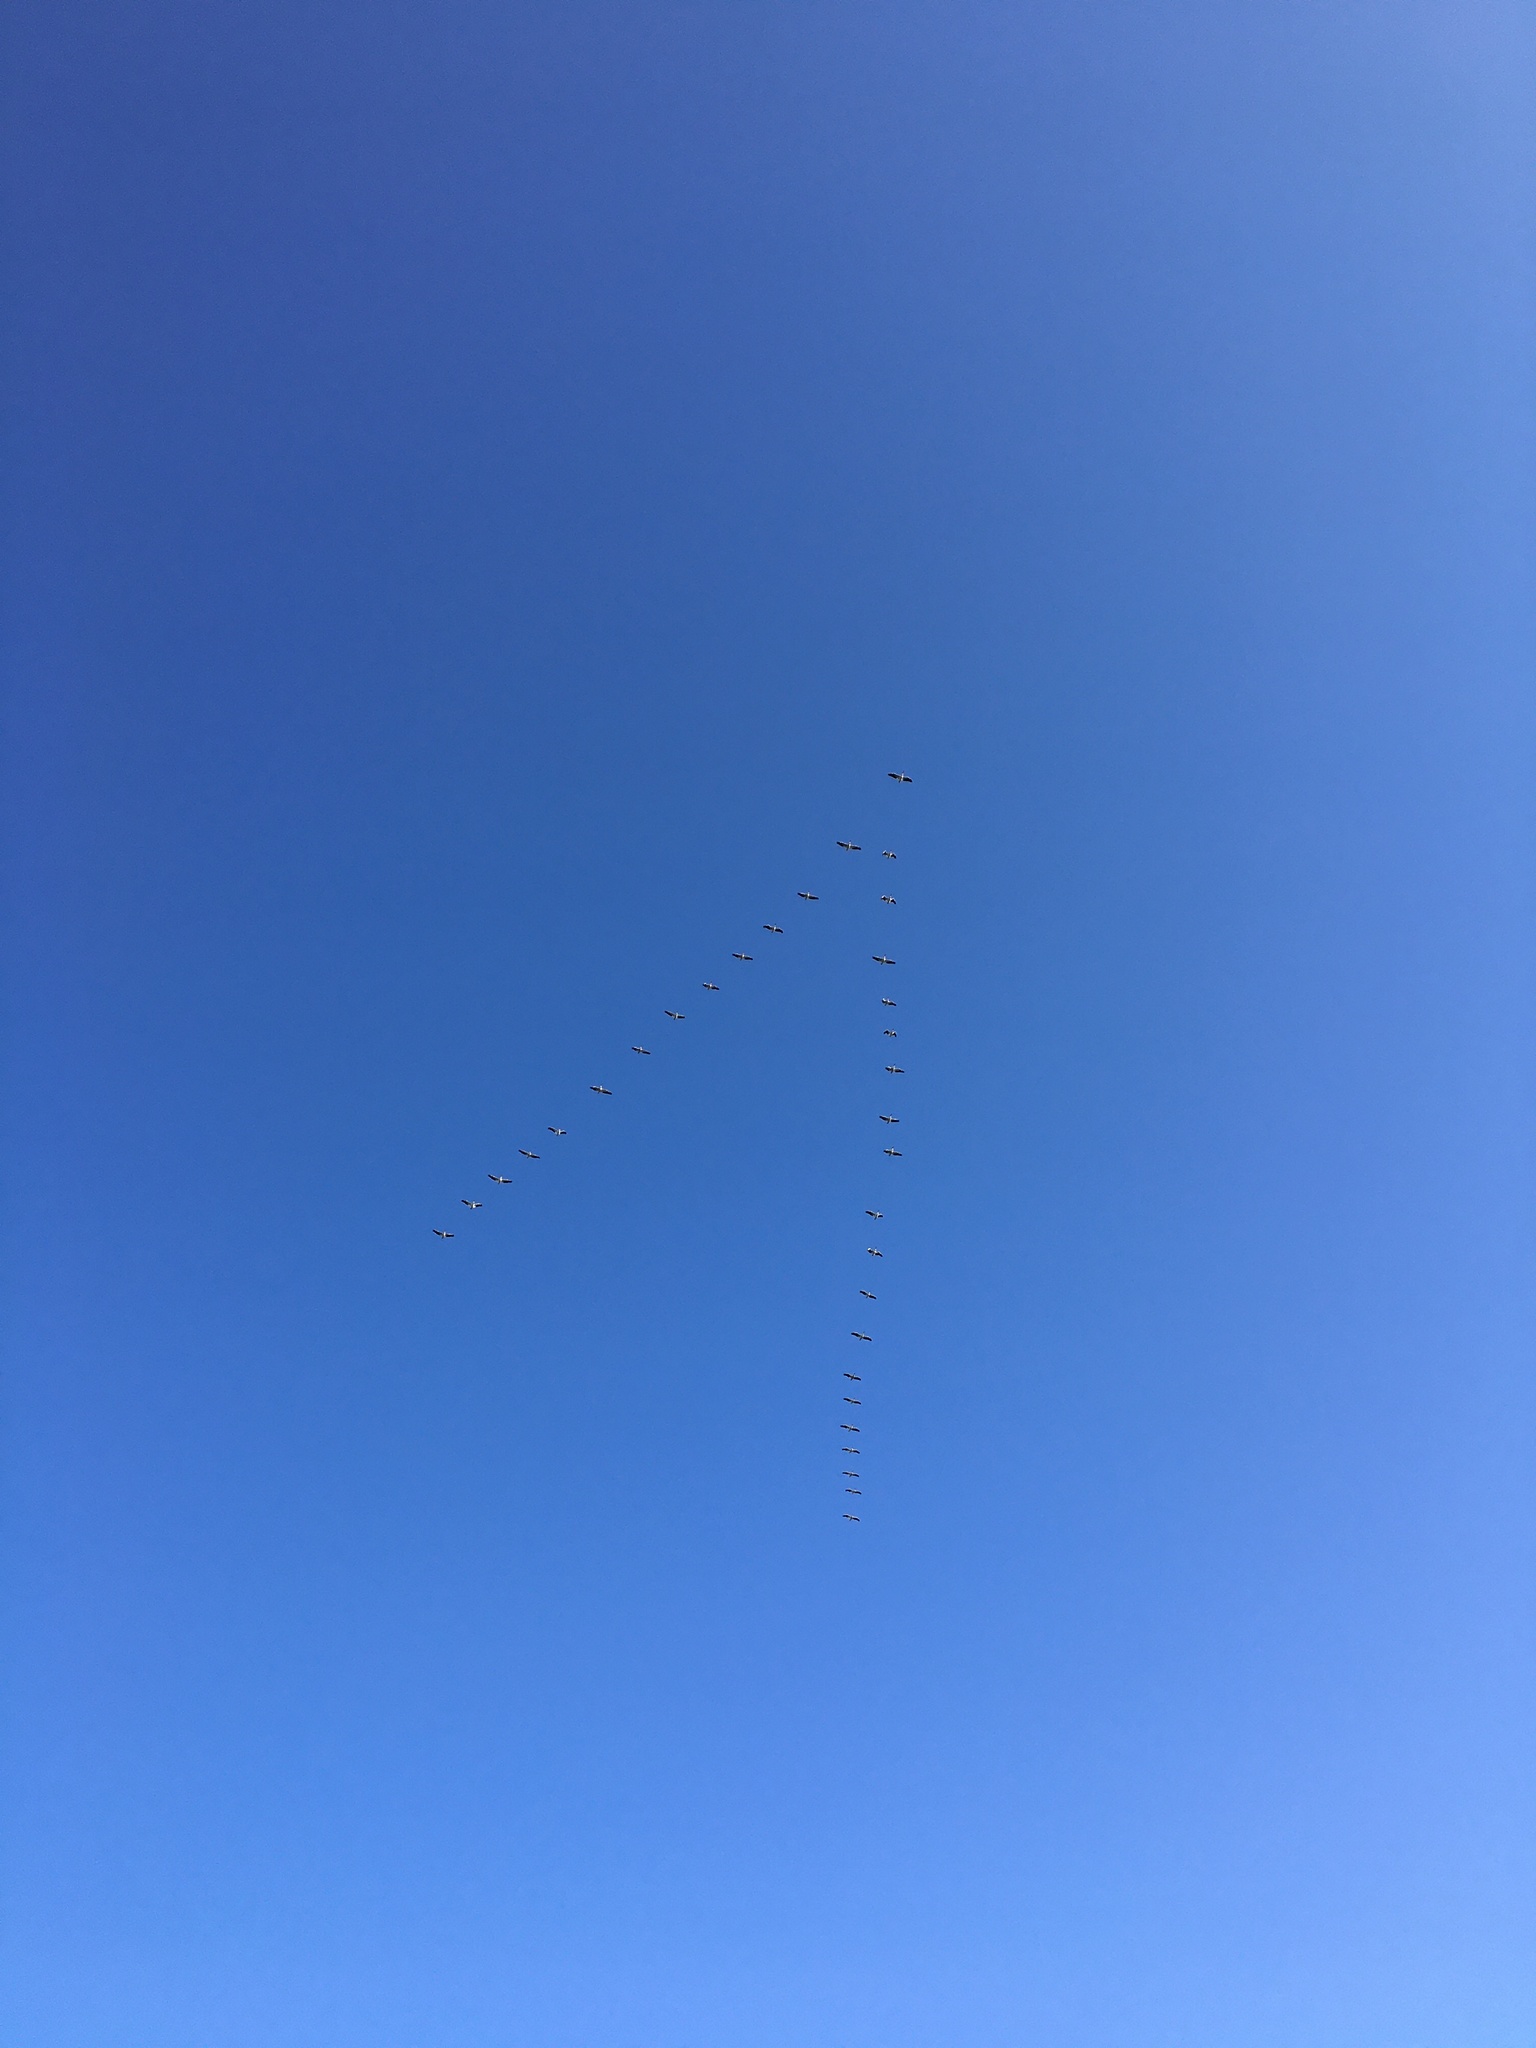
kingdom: Animalia
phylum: Chordata
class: Aves
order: Pelecaniformes
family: Pelecanidae
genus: Pelecanus
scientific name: Pelecanus erythrorhynchos
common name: American white pelican
